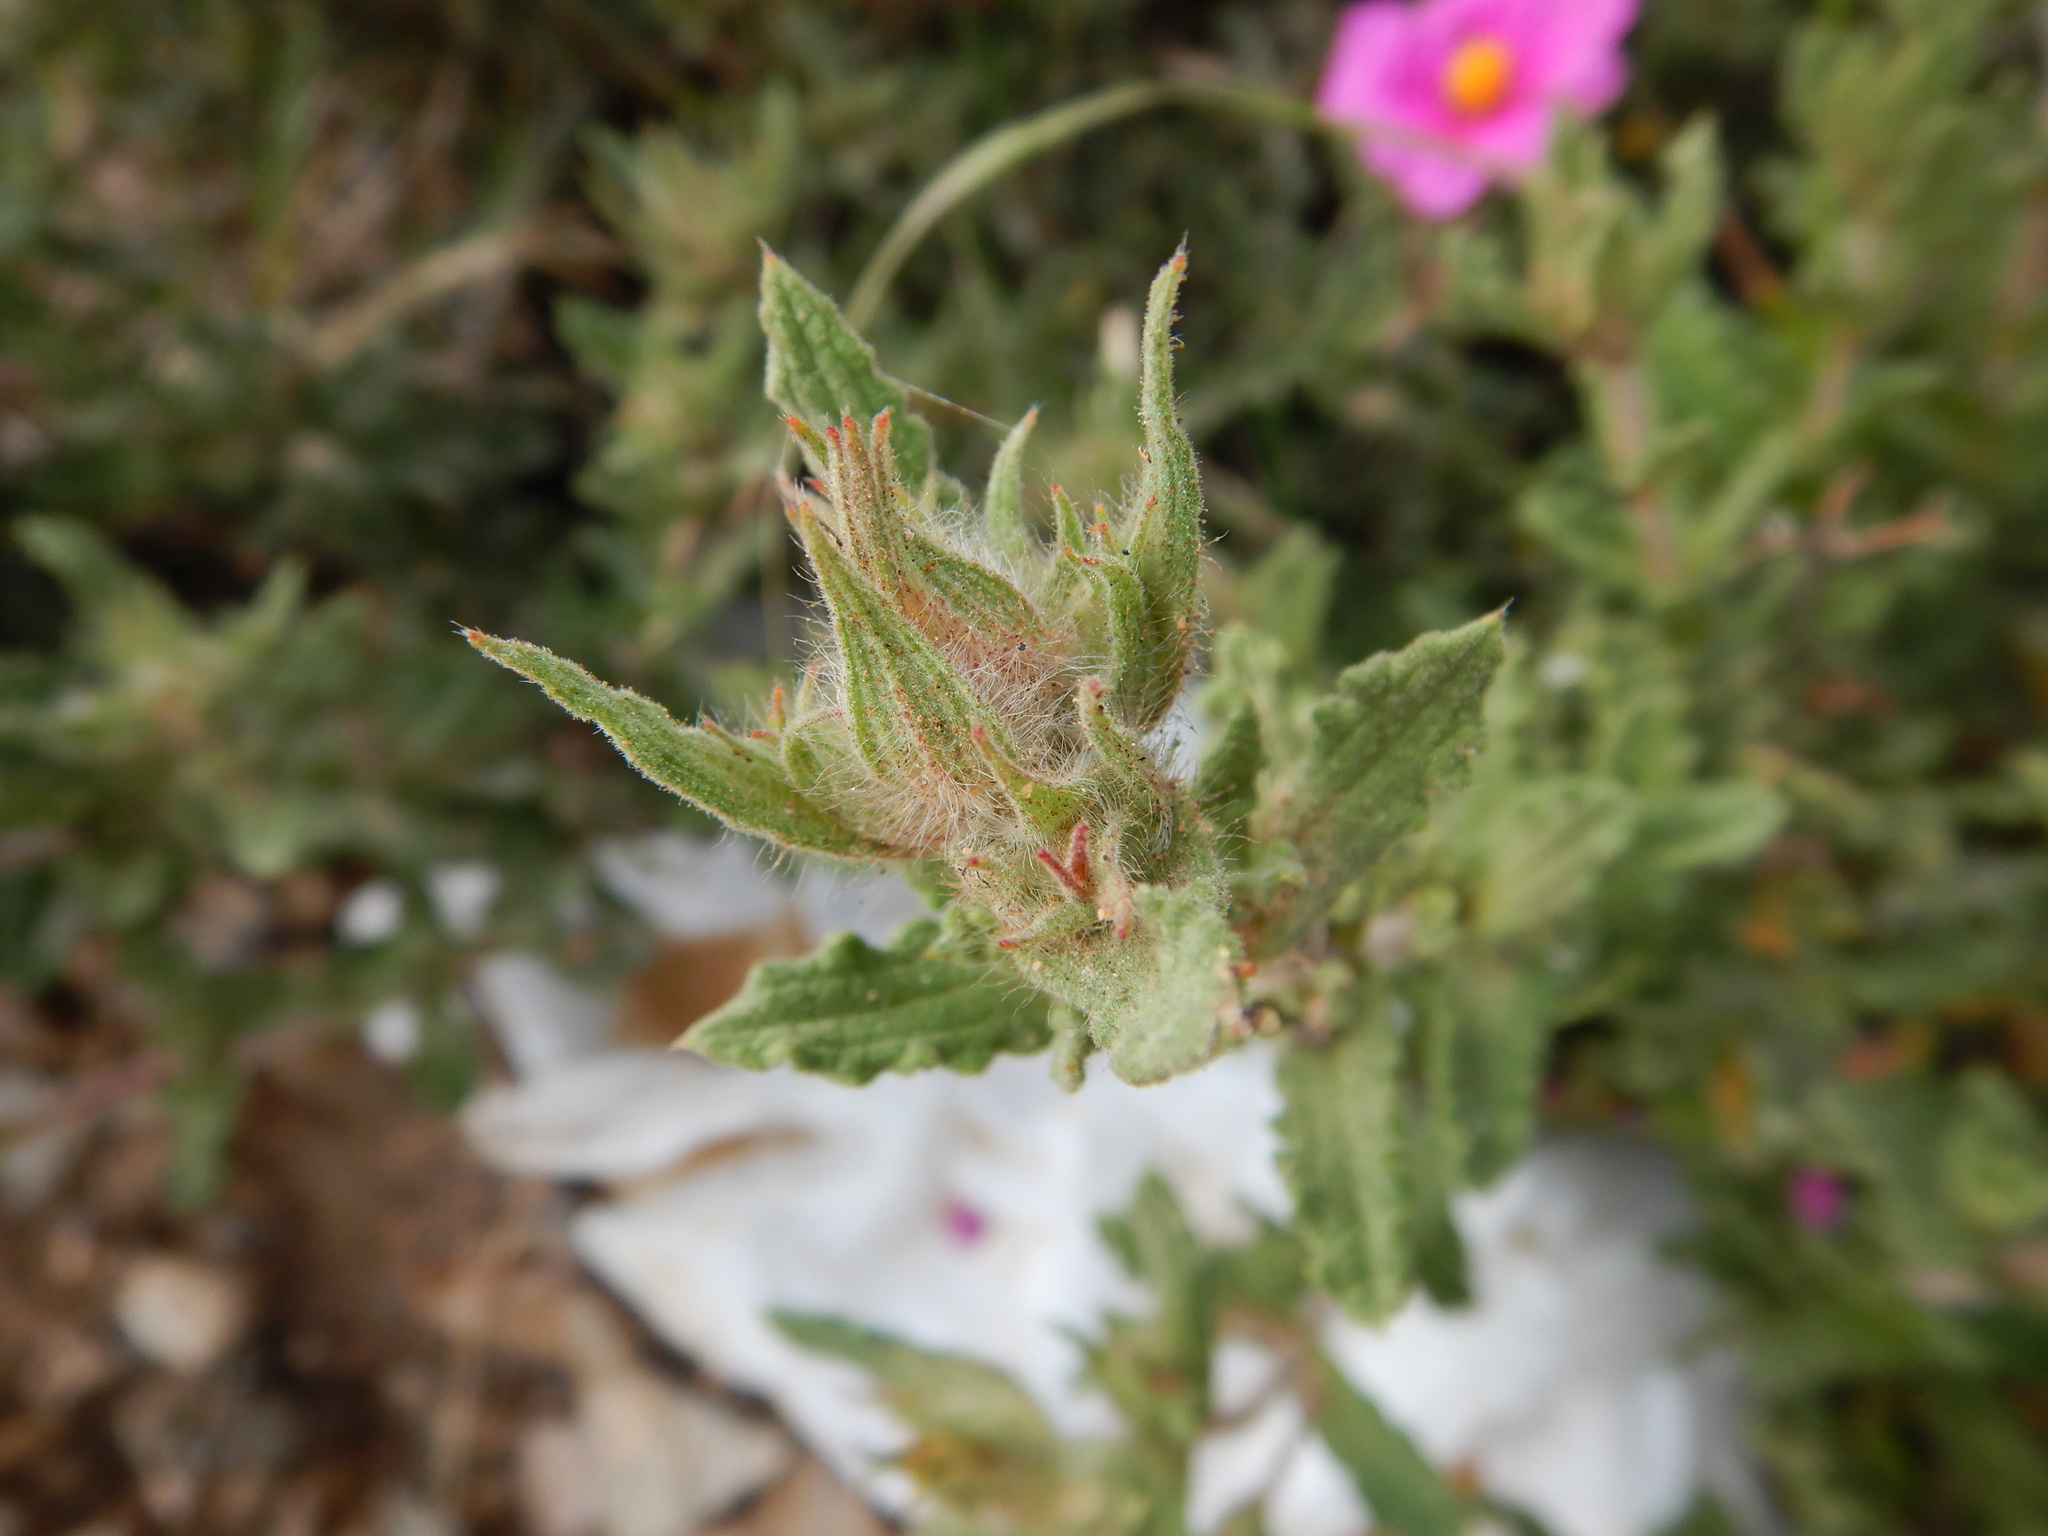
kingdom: Plantae
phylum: Tracheophyta
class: Magnoliopsida
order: Malvales
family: Cistaceae
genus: Cistus
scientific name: Cistus crispus
